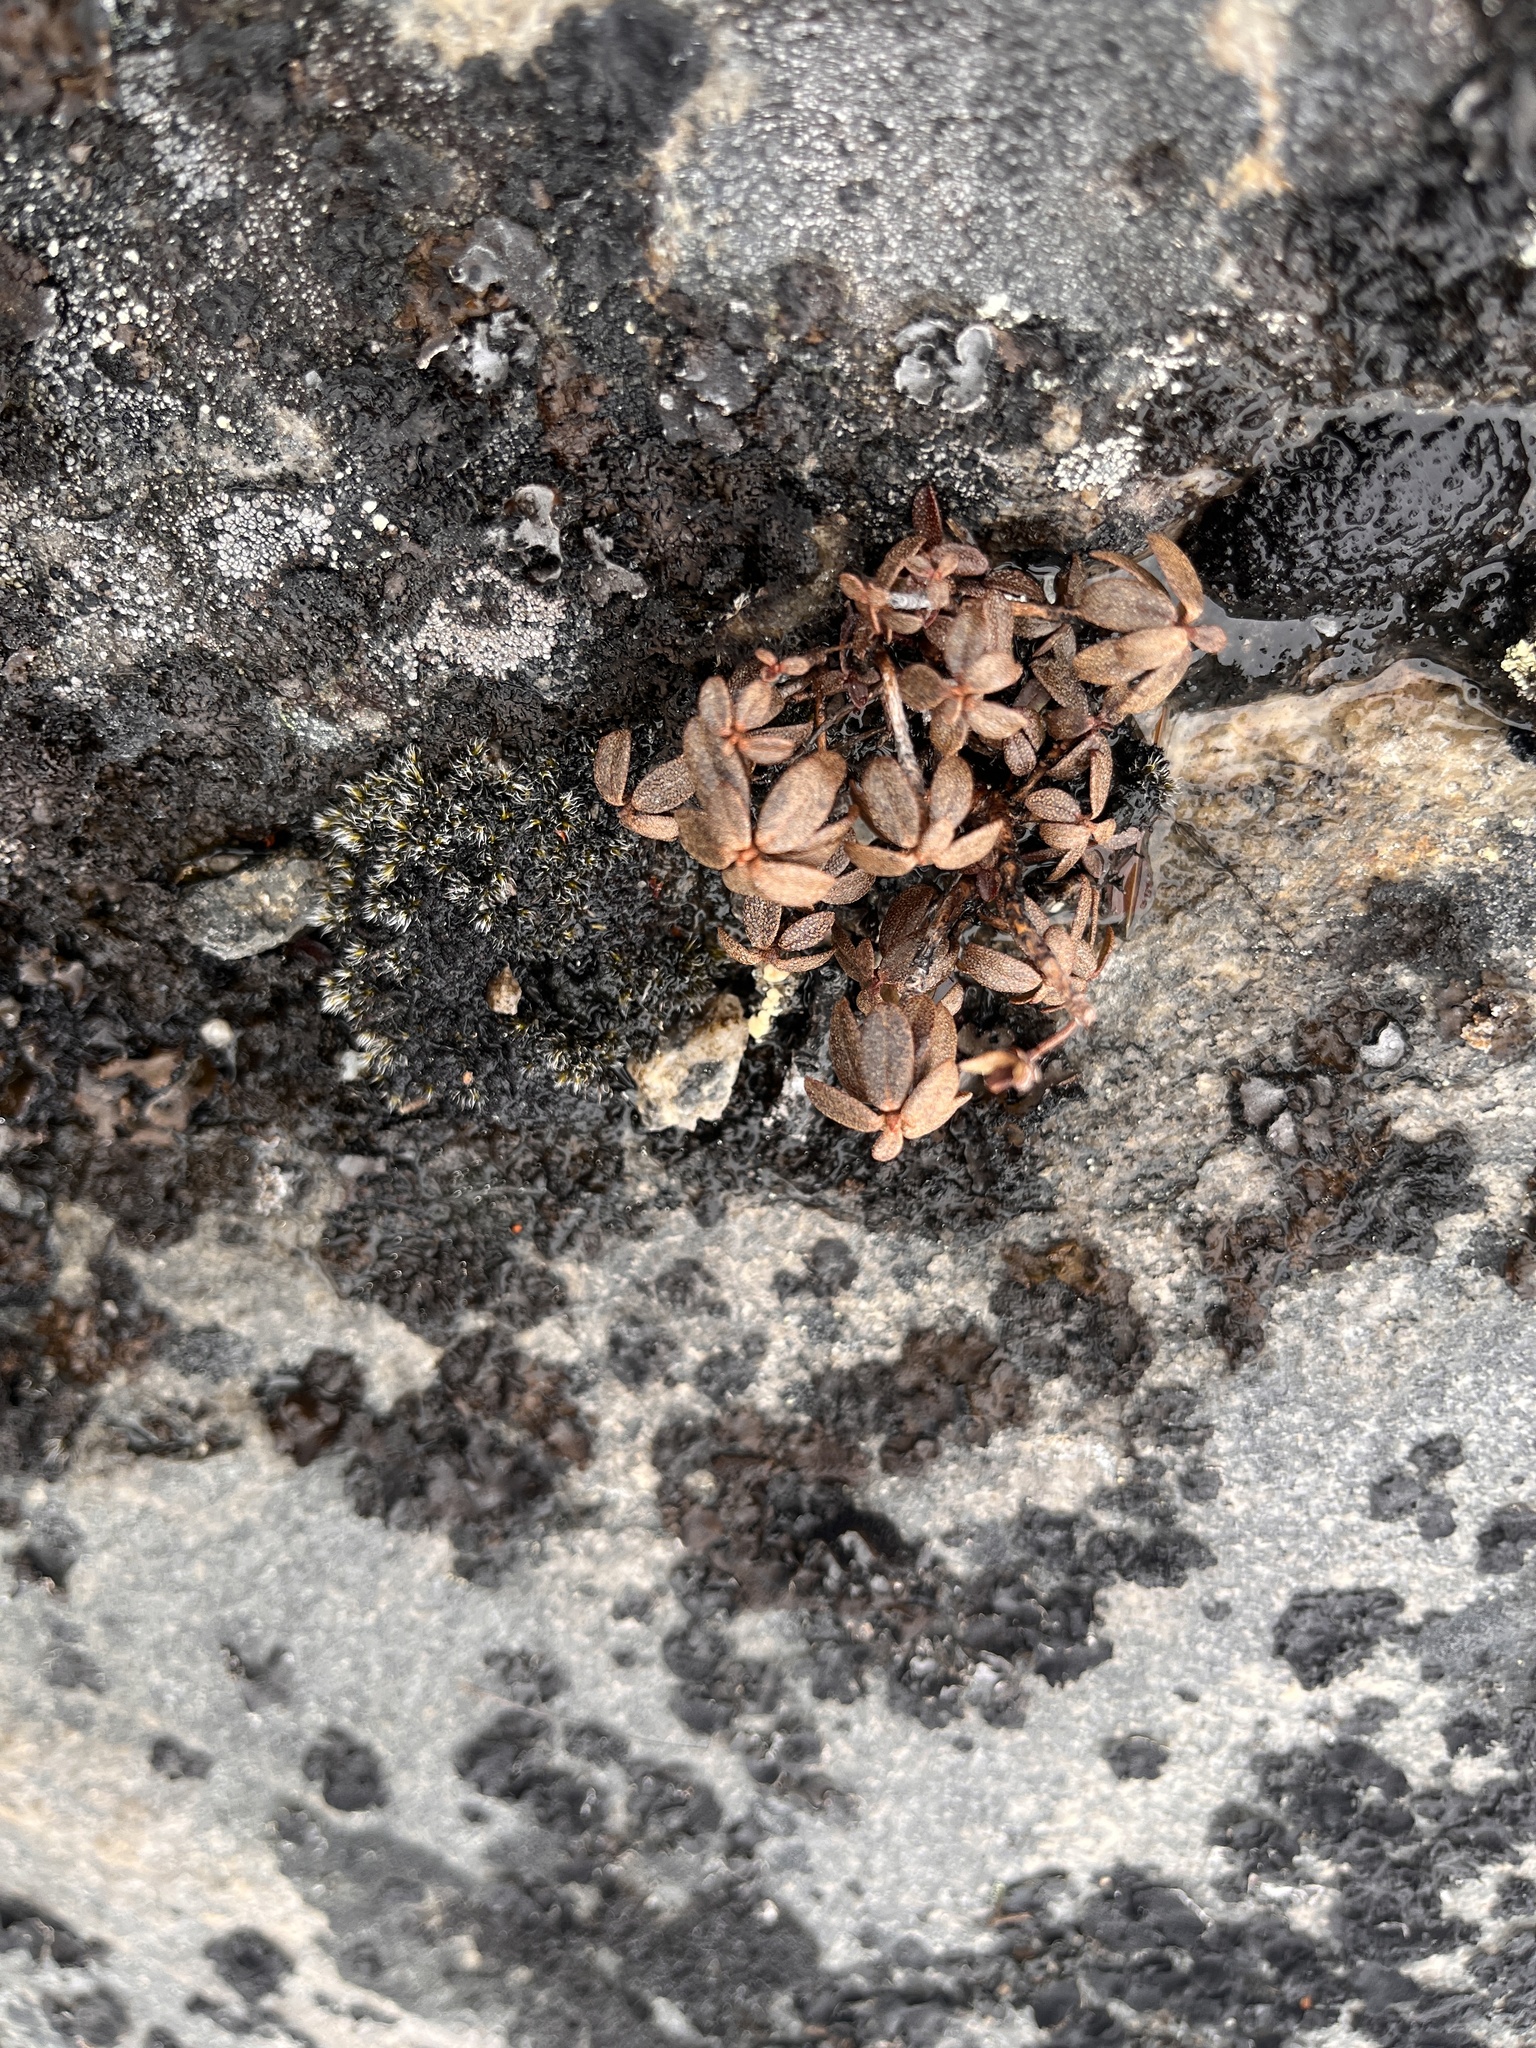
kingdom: Plantae
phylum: Tracheophyta
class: Magnoliopsida
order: Ericales
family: Ericaceae
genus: Rhododendron
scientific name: Rhododendron lapponicum
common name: Lapland rhododendron
